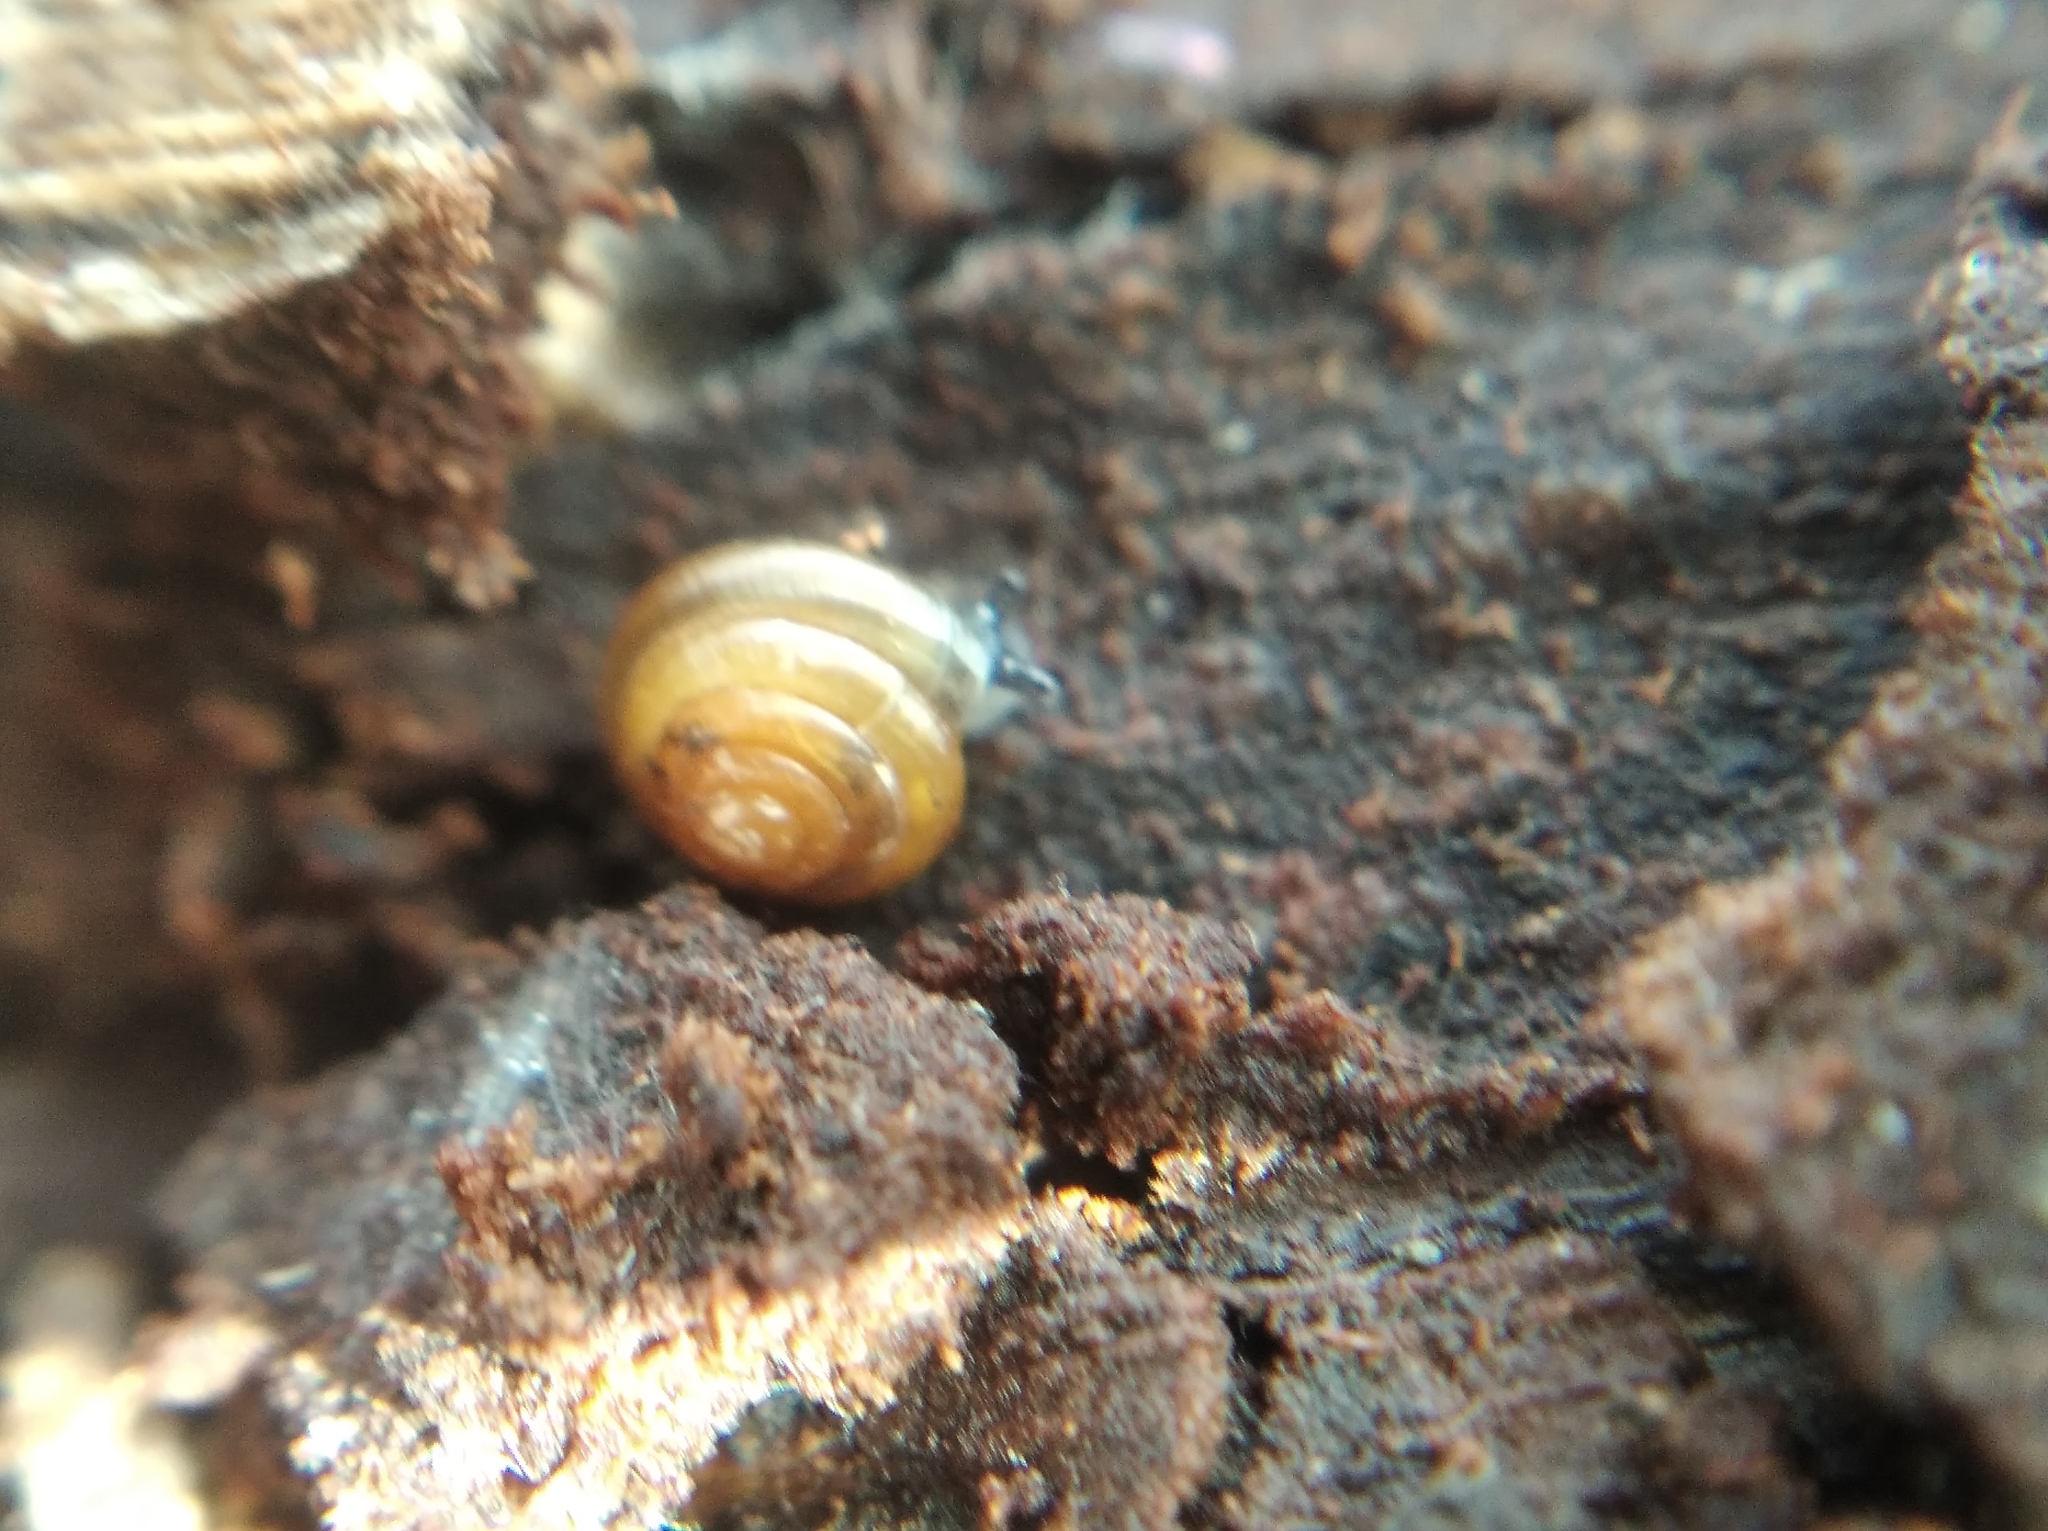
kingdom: Animalia
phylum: Mollusca
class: Gastropoda
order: Stylommatophora
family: Euconulidae
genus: Euconulus
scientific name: Euconulus fulvus
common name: Tawny glass snail
